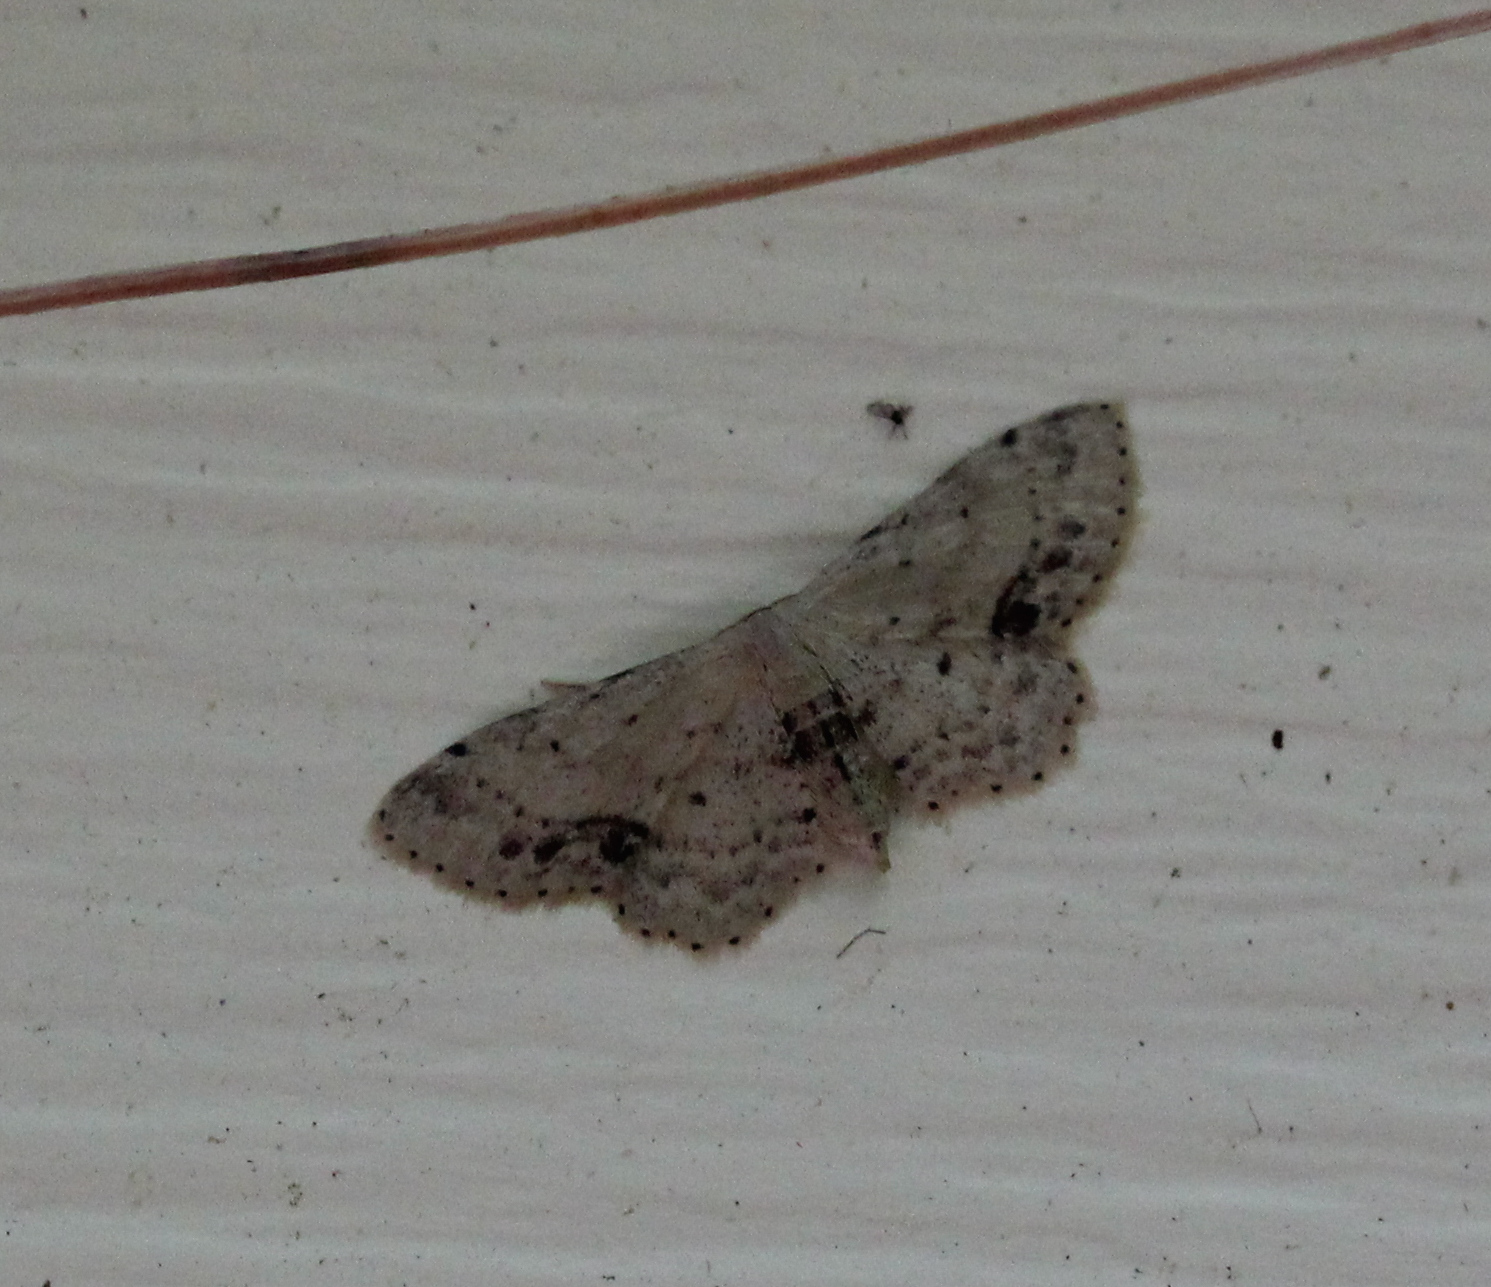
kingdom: Animalia
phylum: Arthropoda
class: Insecta
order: Lepidoptera
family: Geometridae
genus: Idaea
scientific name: Idaea dimidiata
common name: Single-dotted wave
